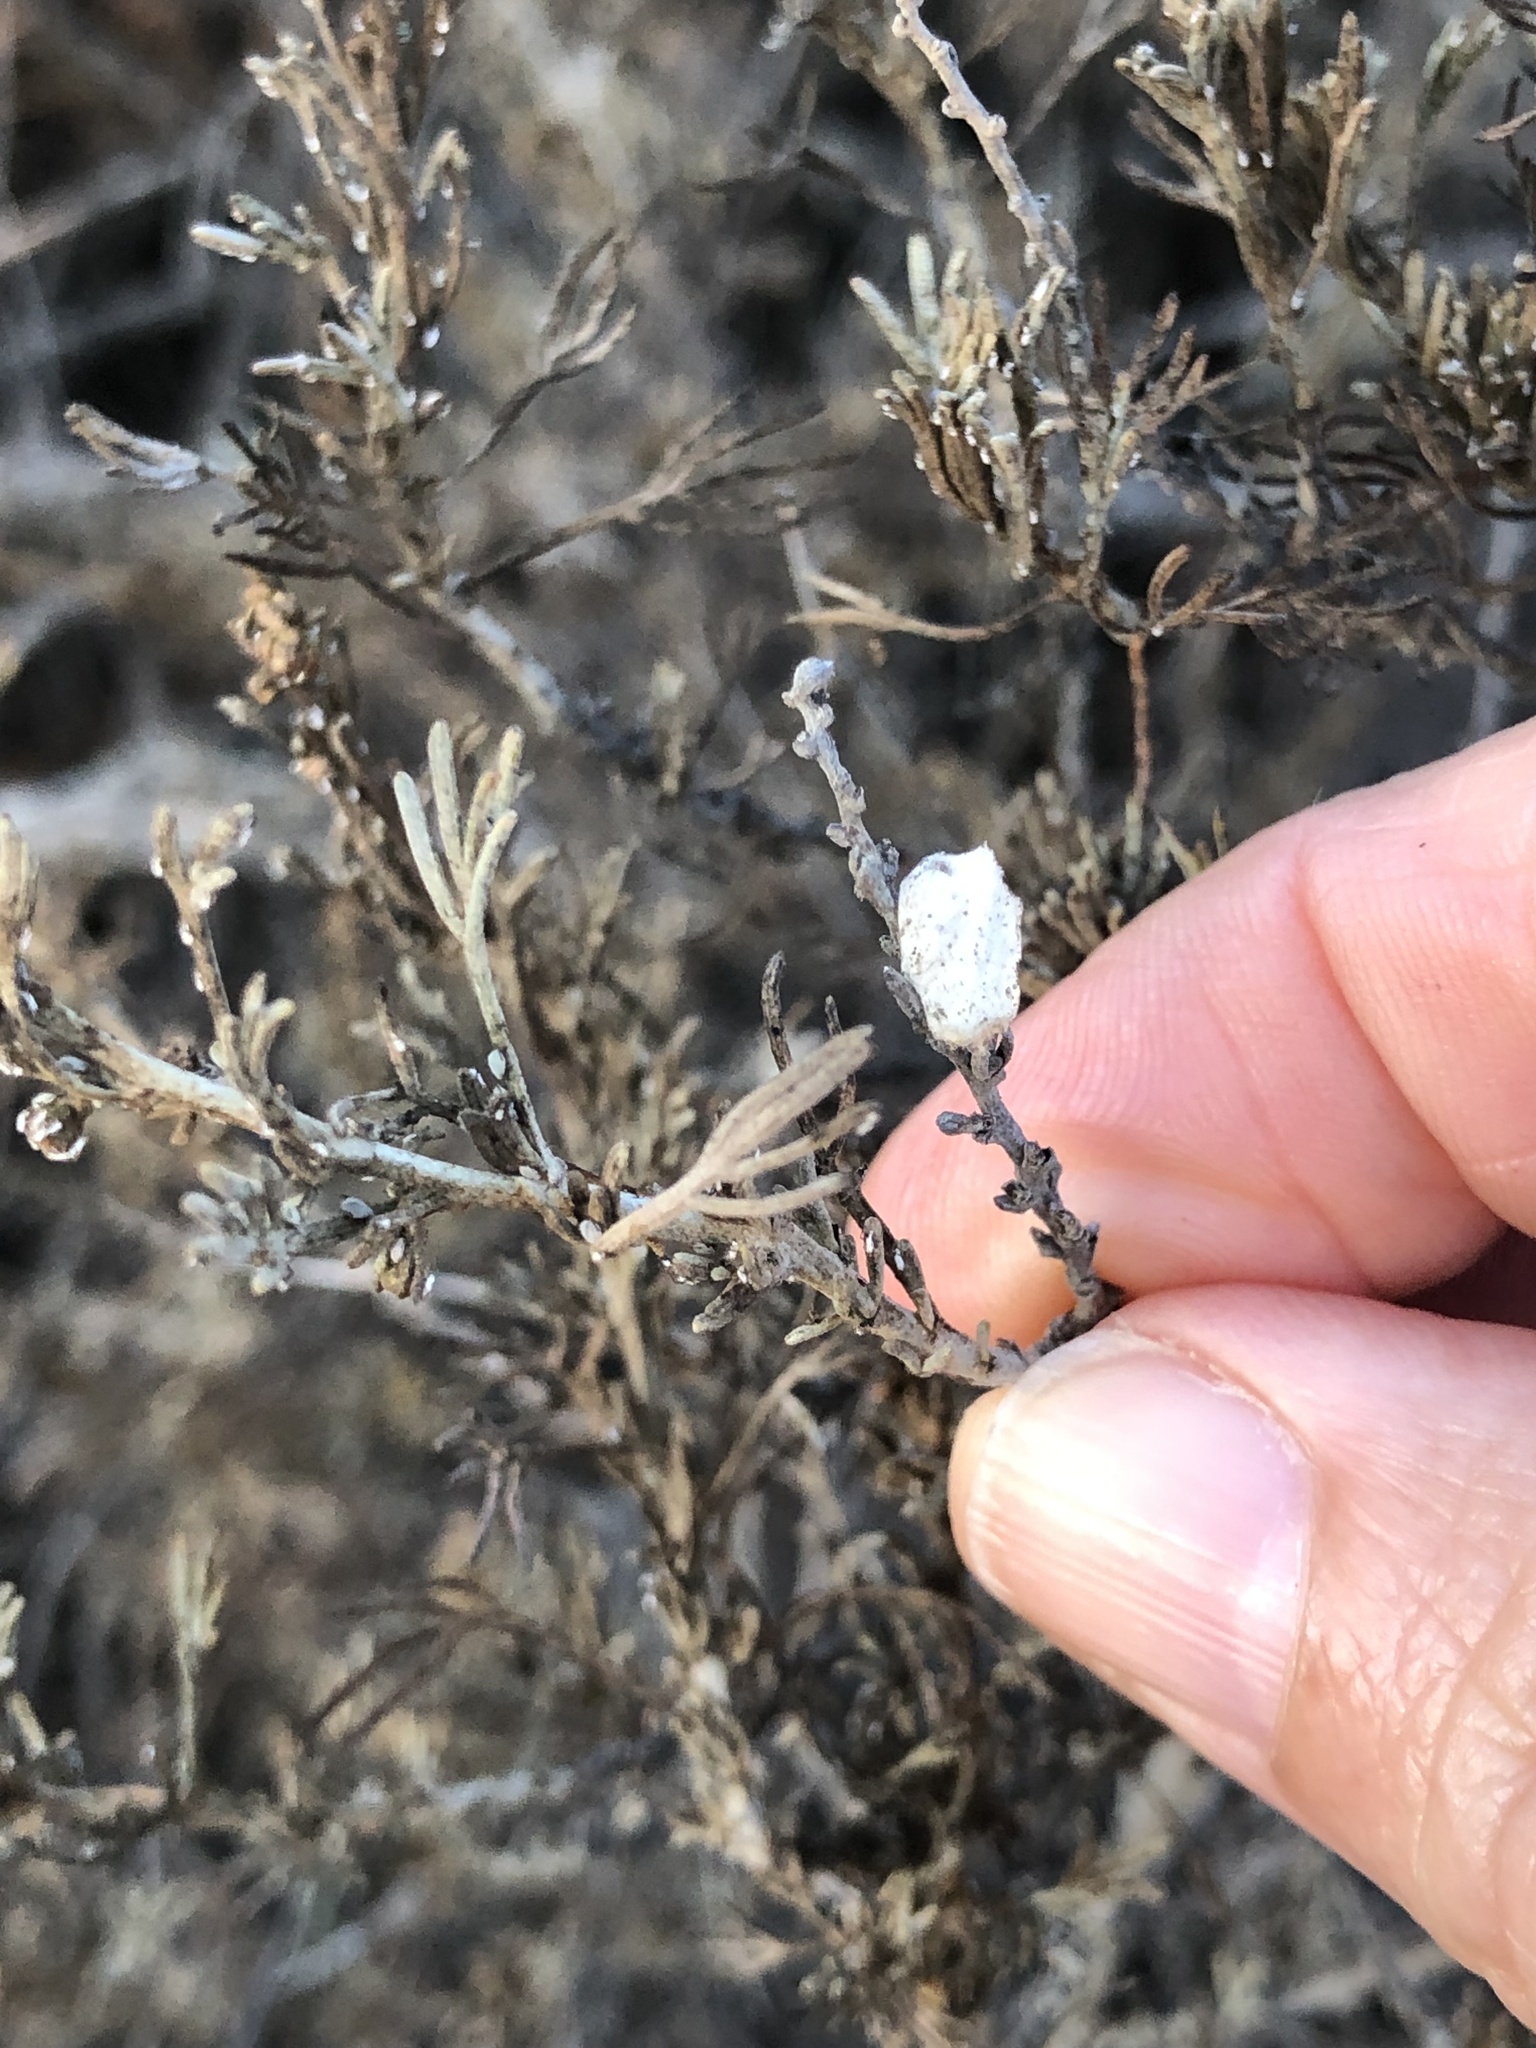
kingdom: Animalia
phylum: Arthropoda
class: Insecta
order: Diptera
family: Cecidomyiidae
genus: Rhopalomyia
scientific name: Rhopalomyia floccosa
